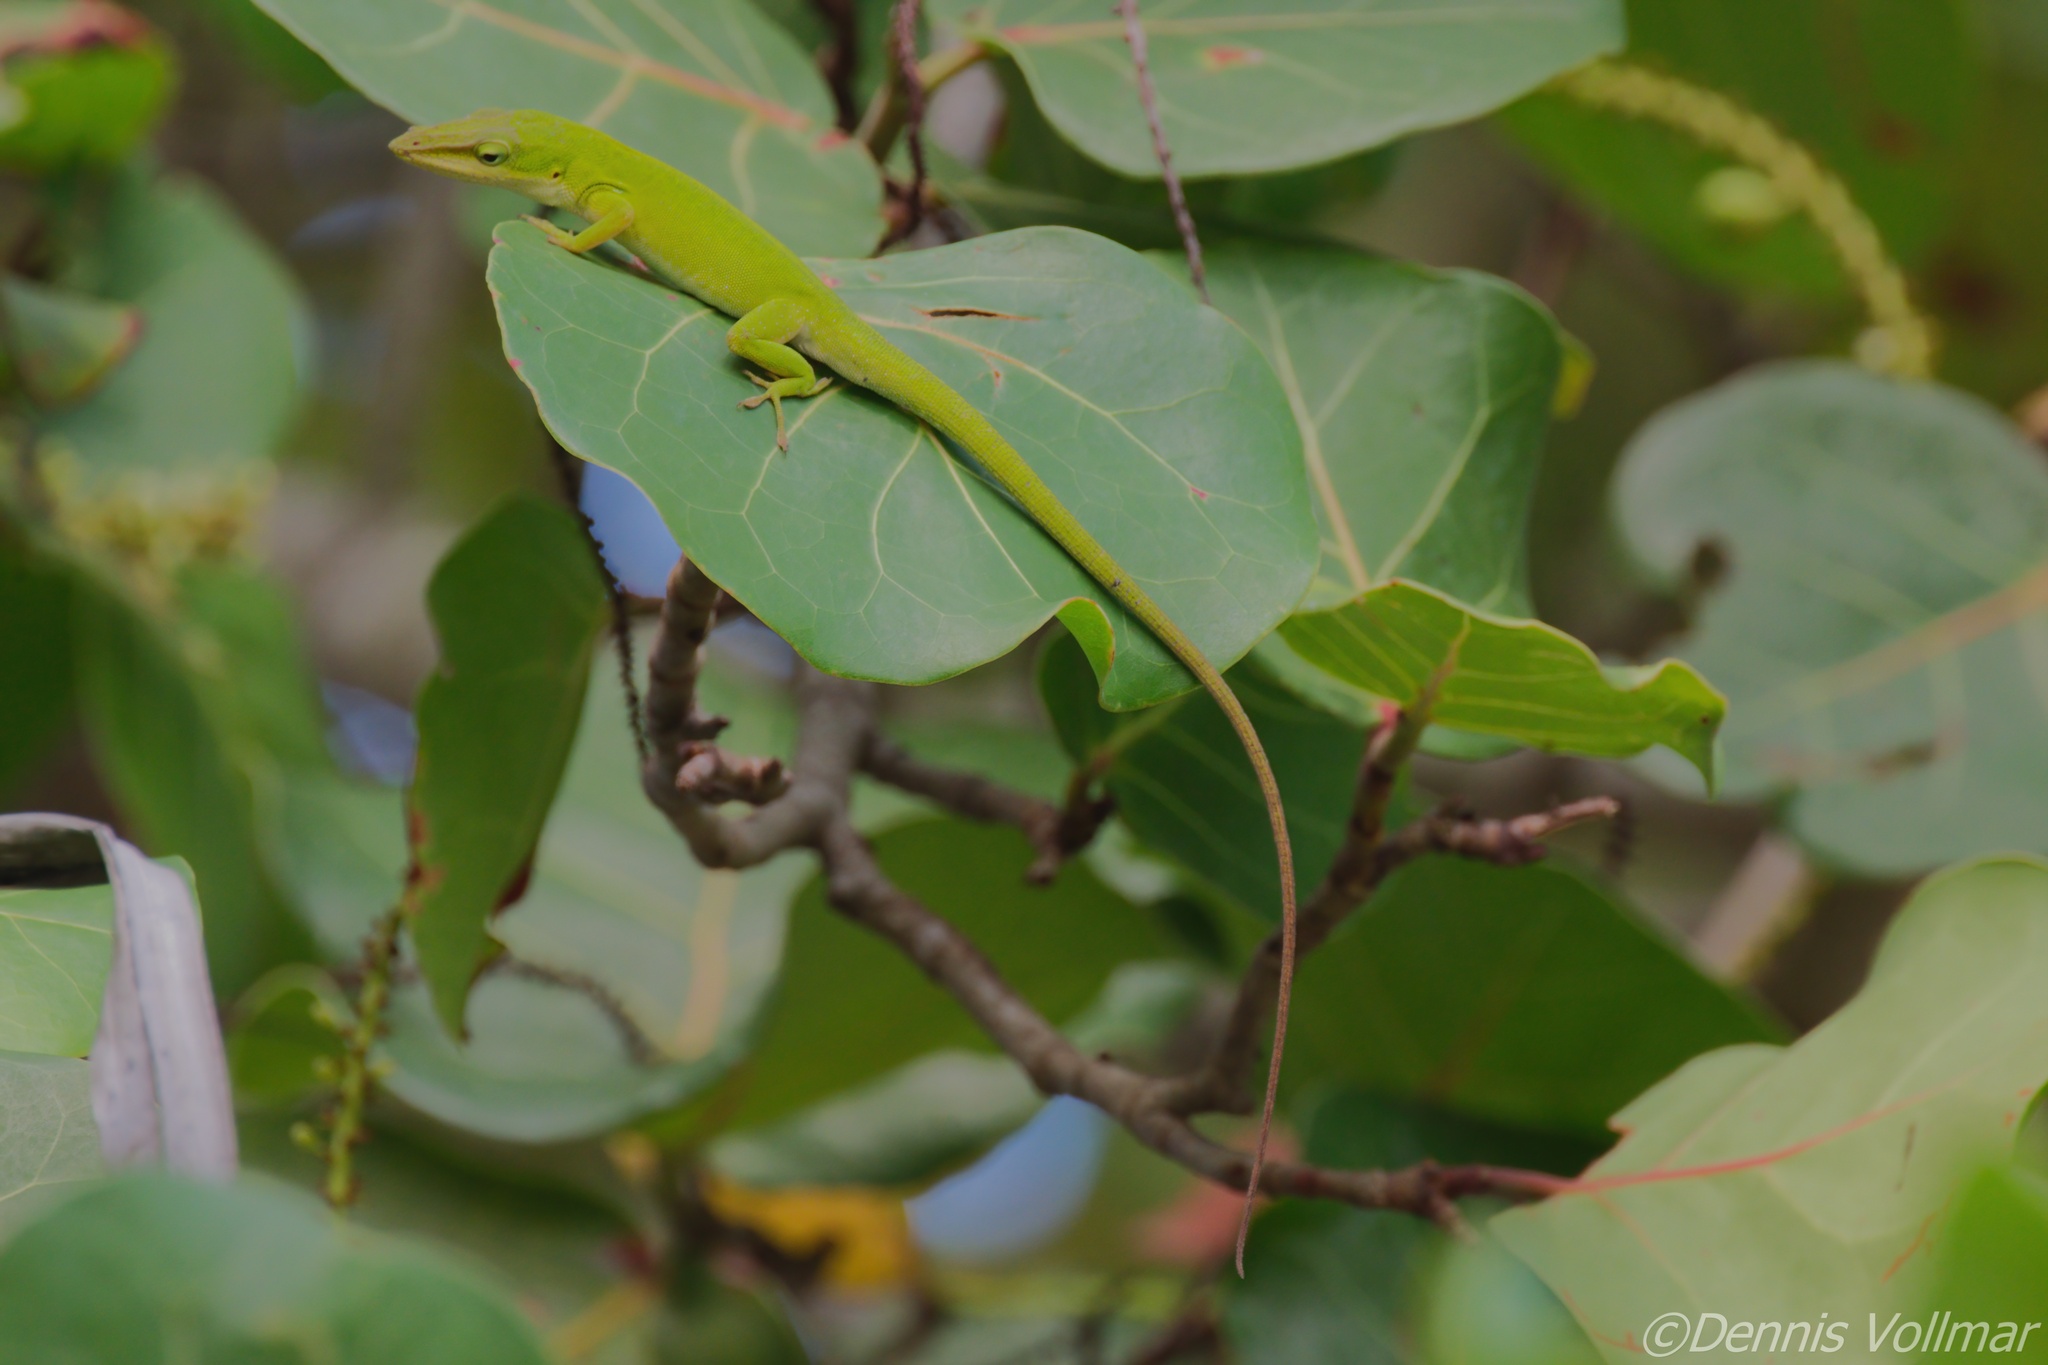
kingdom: Animalia
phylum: Chordata
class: Squamata
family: Dactyloidae
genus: Anolis
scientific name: Anolis carolinensis
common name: Green anole
